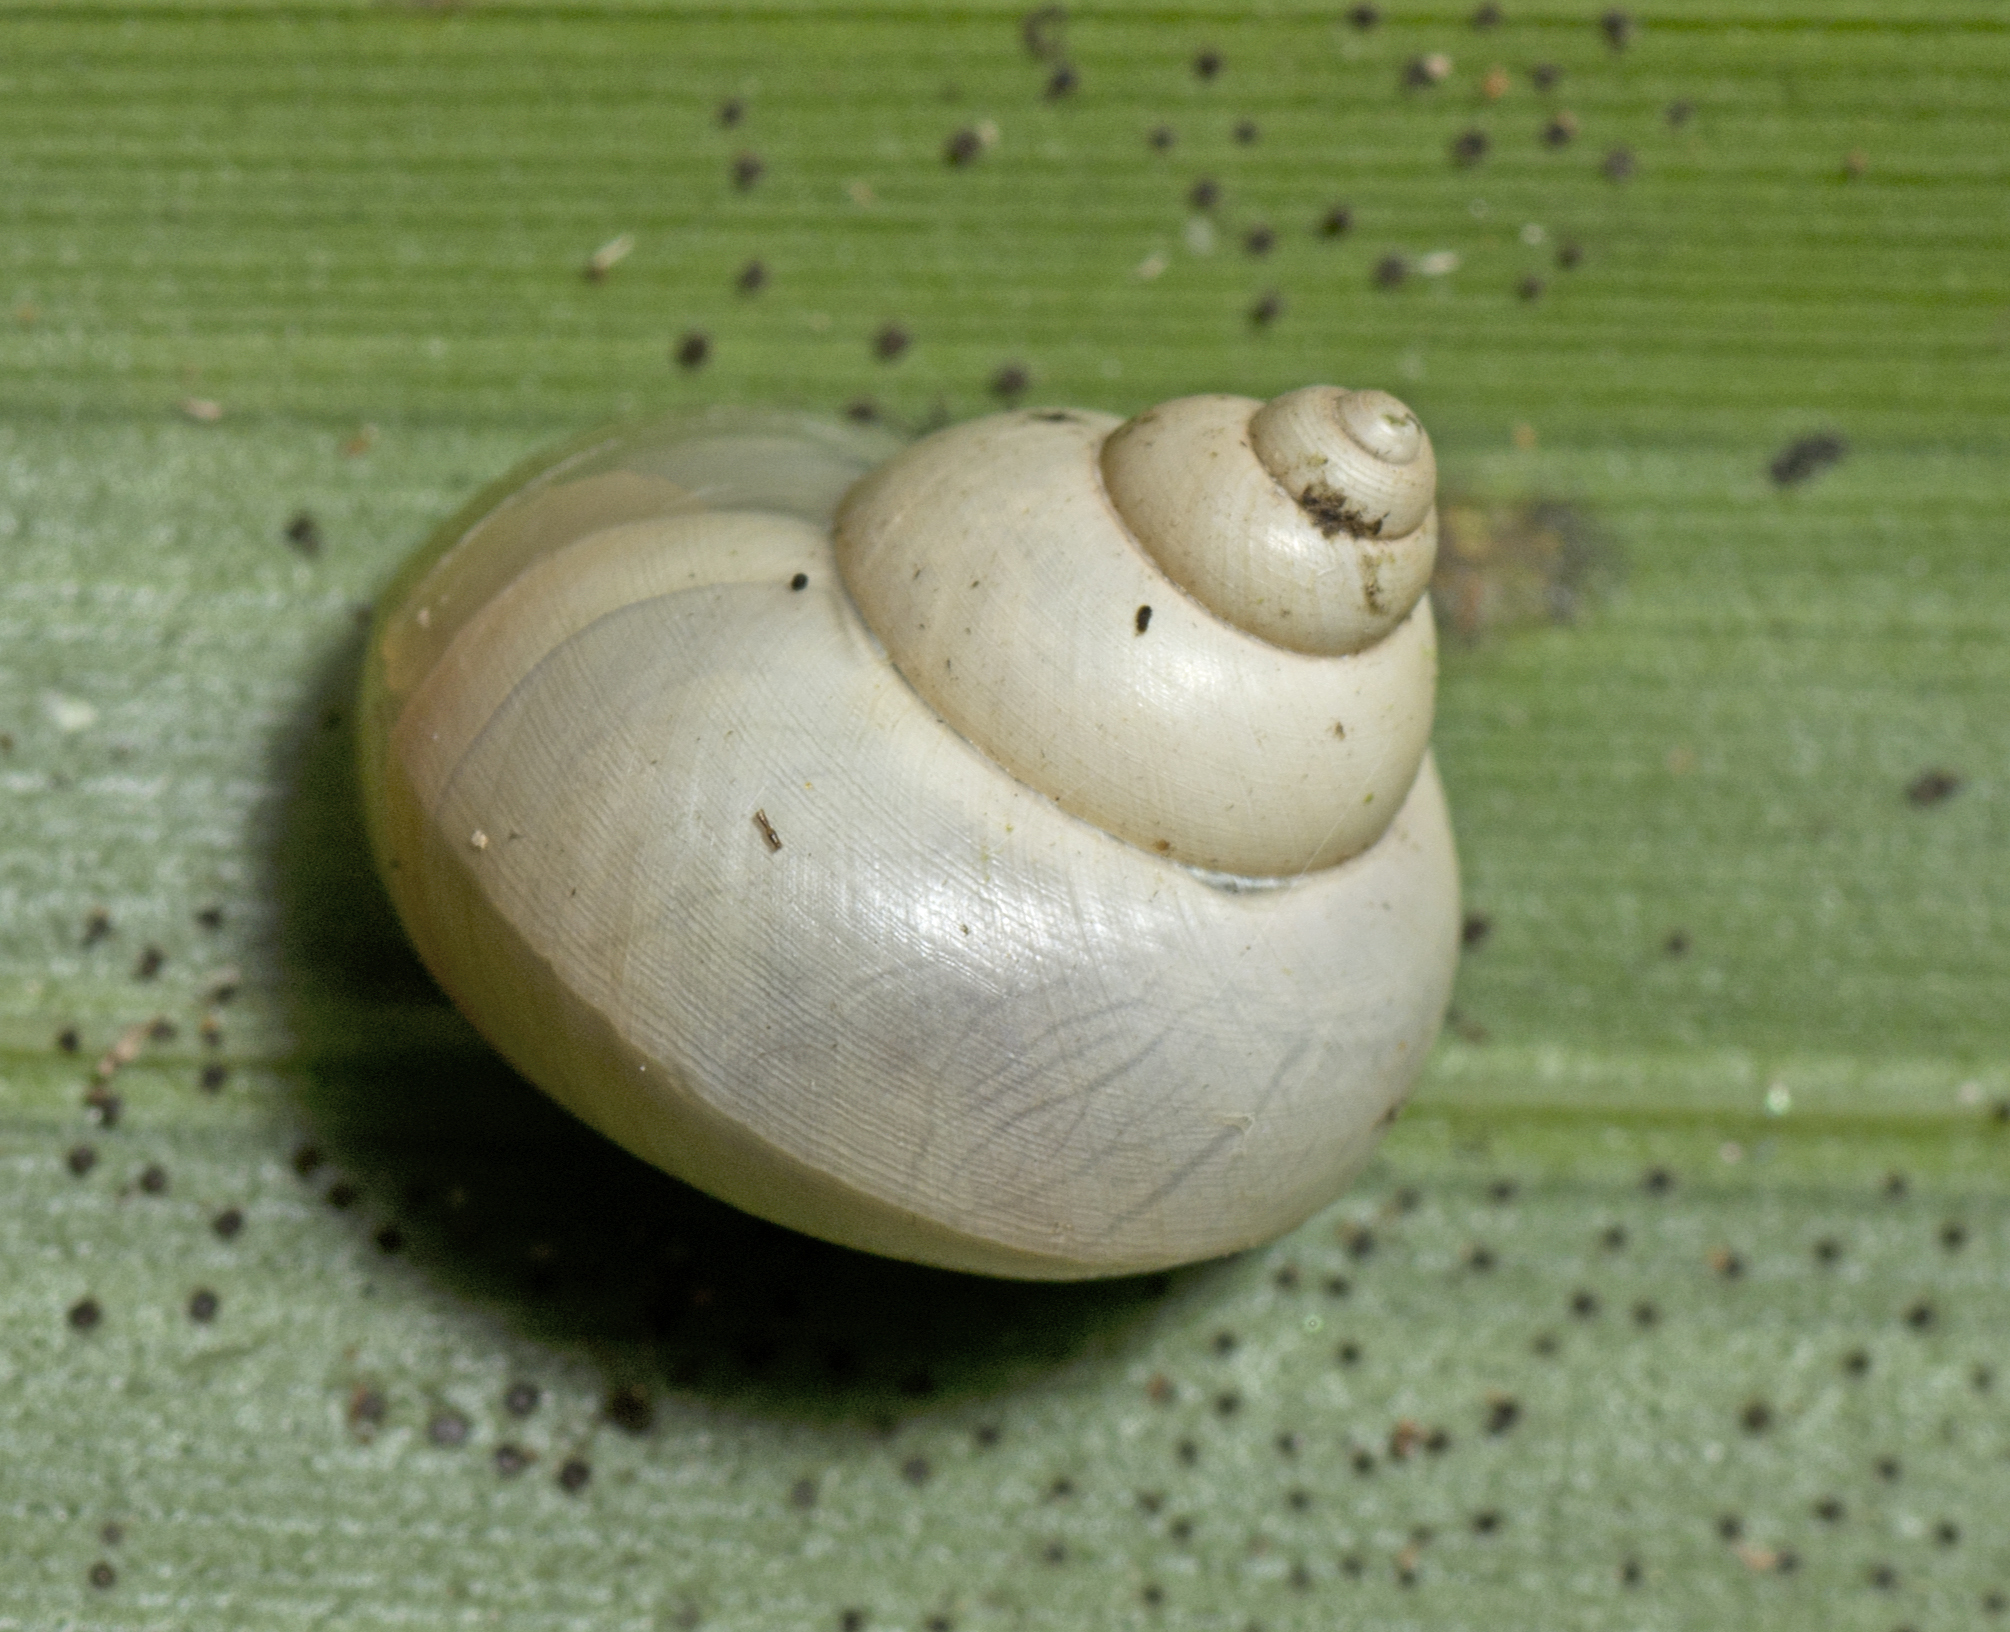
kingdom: Animalia
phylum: Mollusca
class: Gastropoda
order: Architaenioglossa
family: Cyclophoridae
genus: Leptopoma
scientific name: Leptopoma perlucidum
